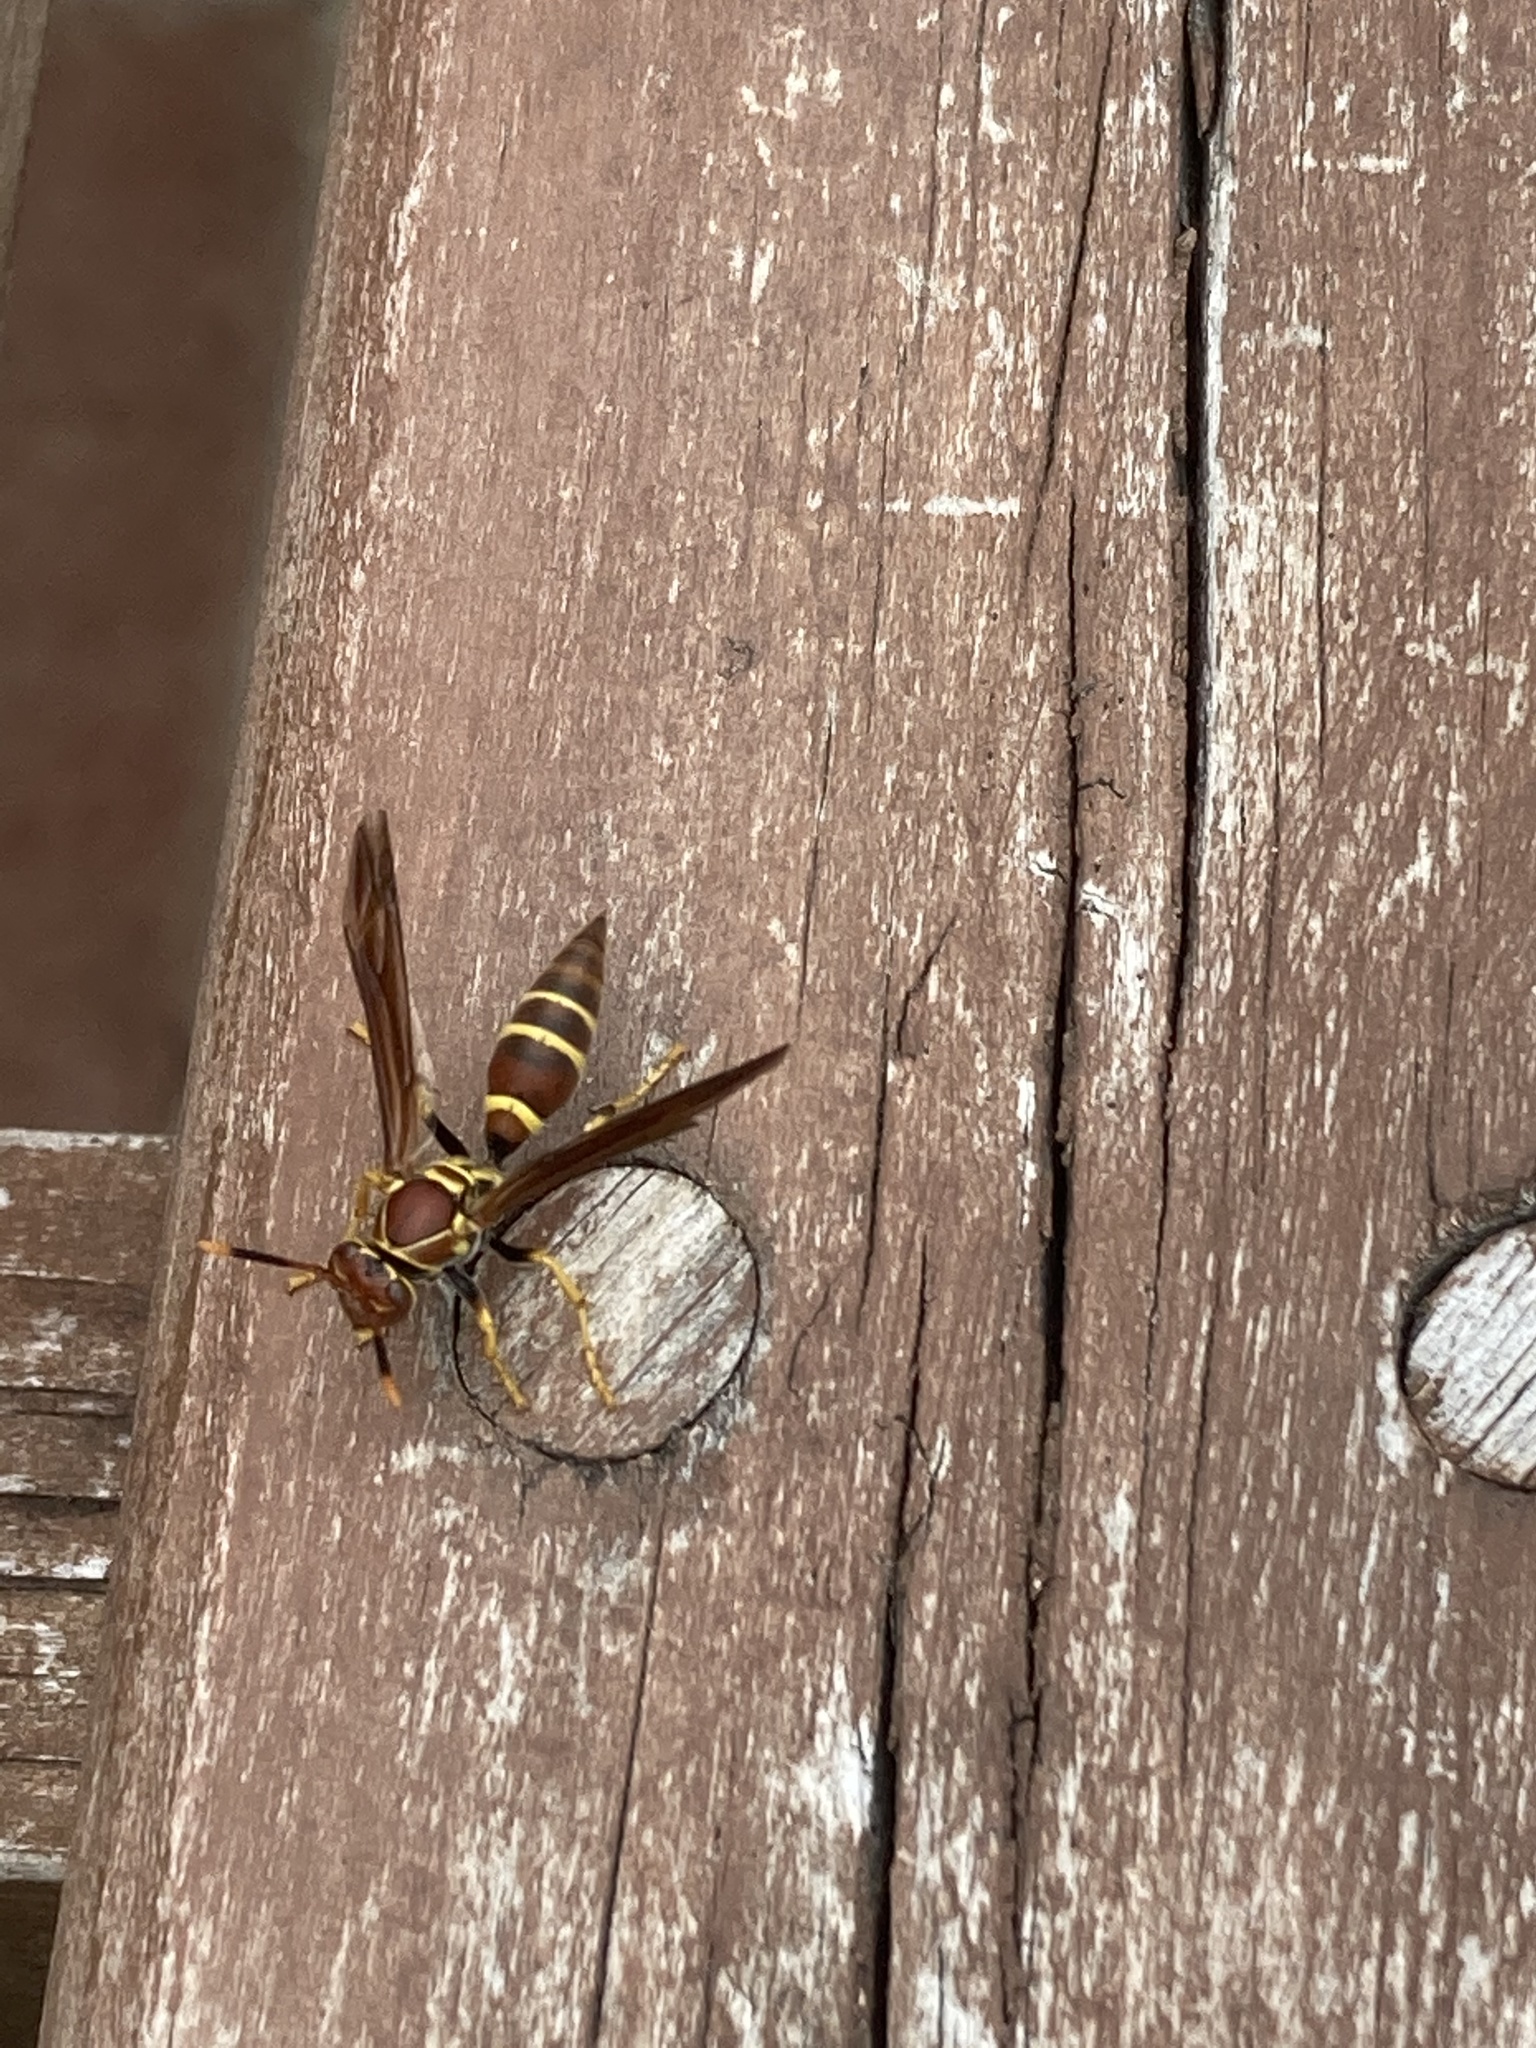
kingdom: Animalia
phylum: Arthropoda
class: Insecta
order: Hymenoptera
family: Eumenidae
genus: Polistes
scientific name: Polistes instabilis
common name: Unstable paper wasp
